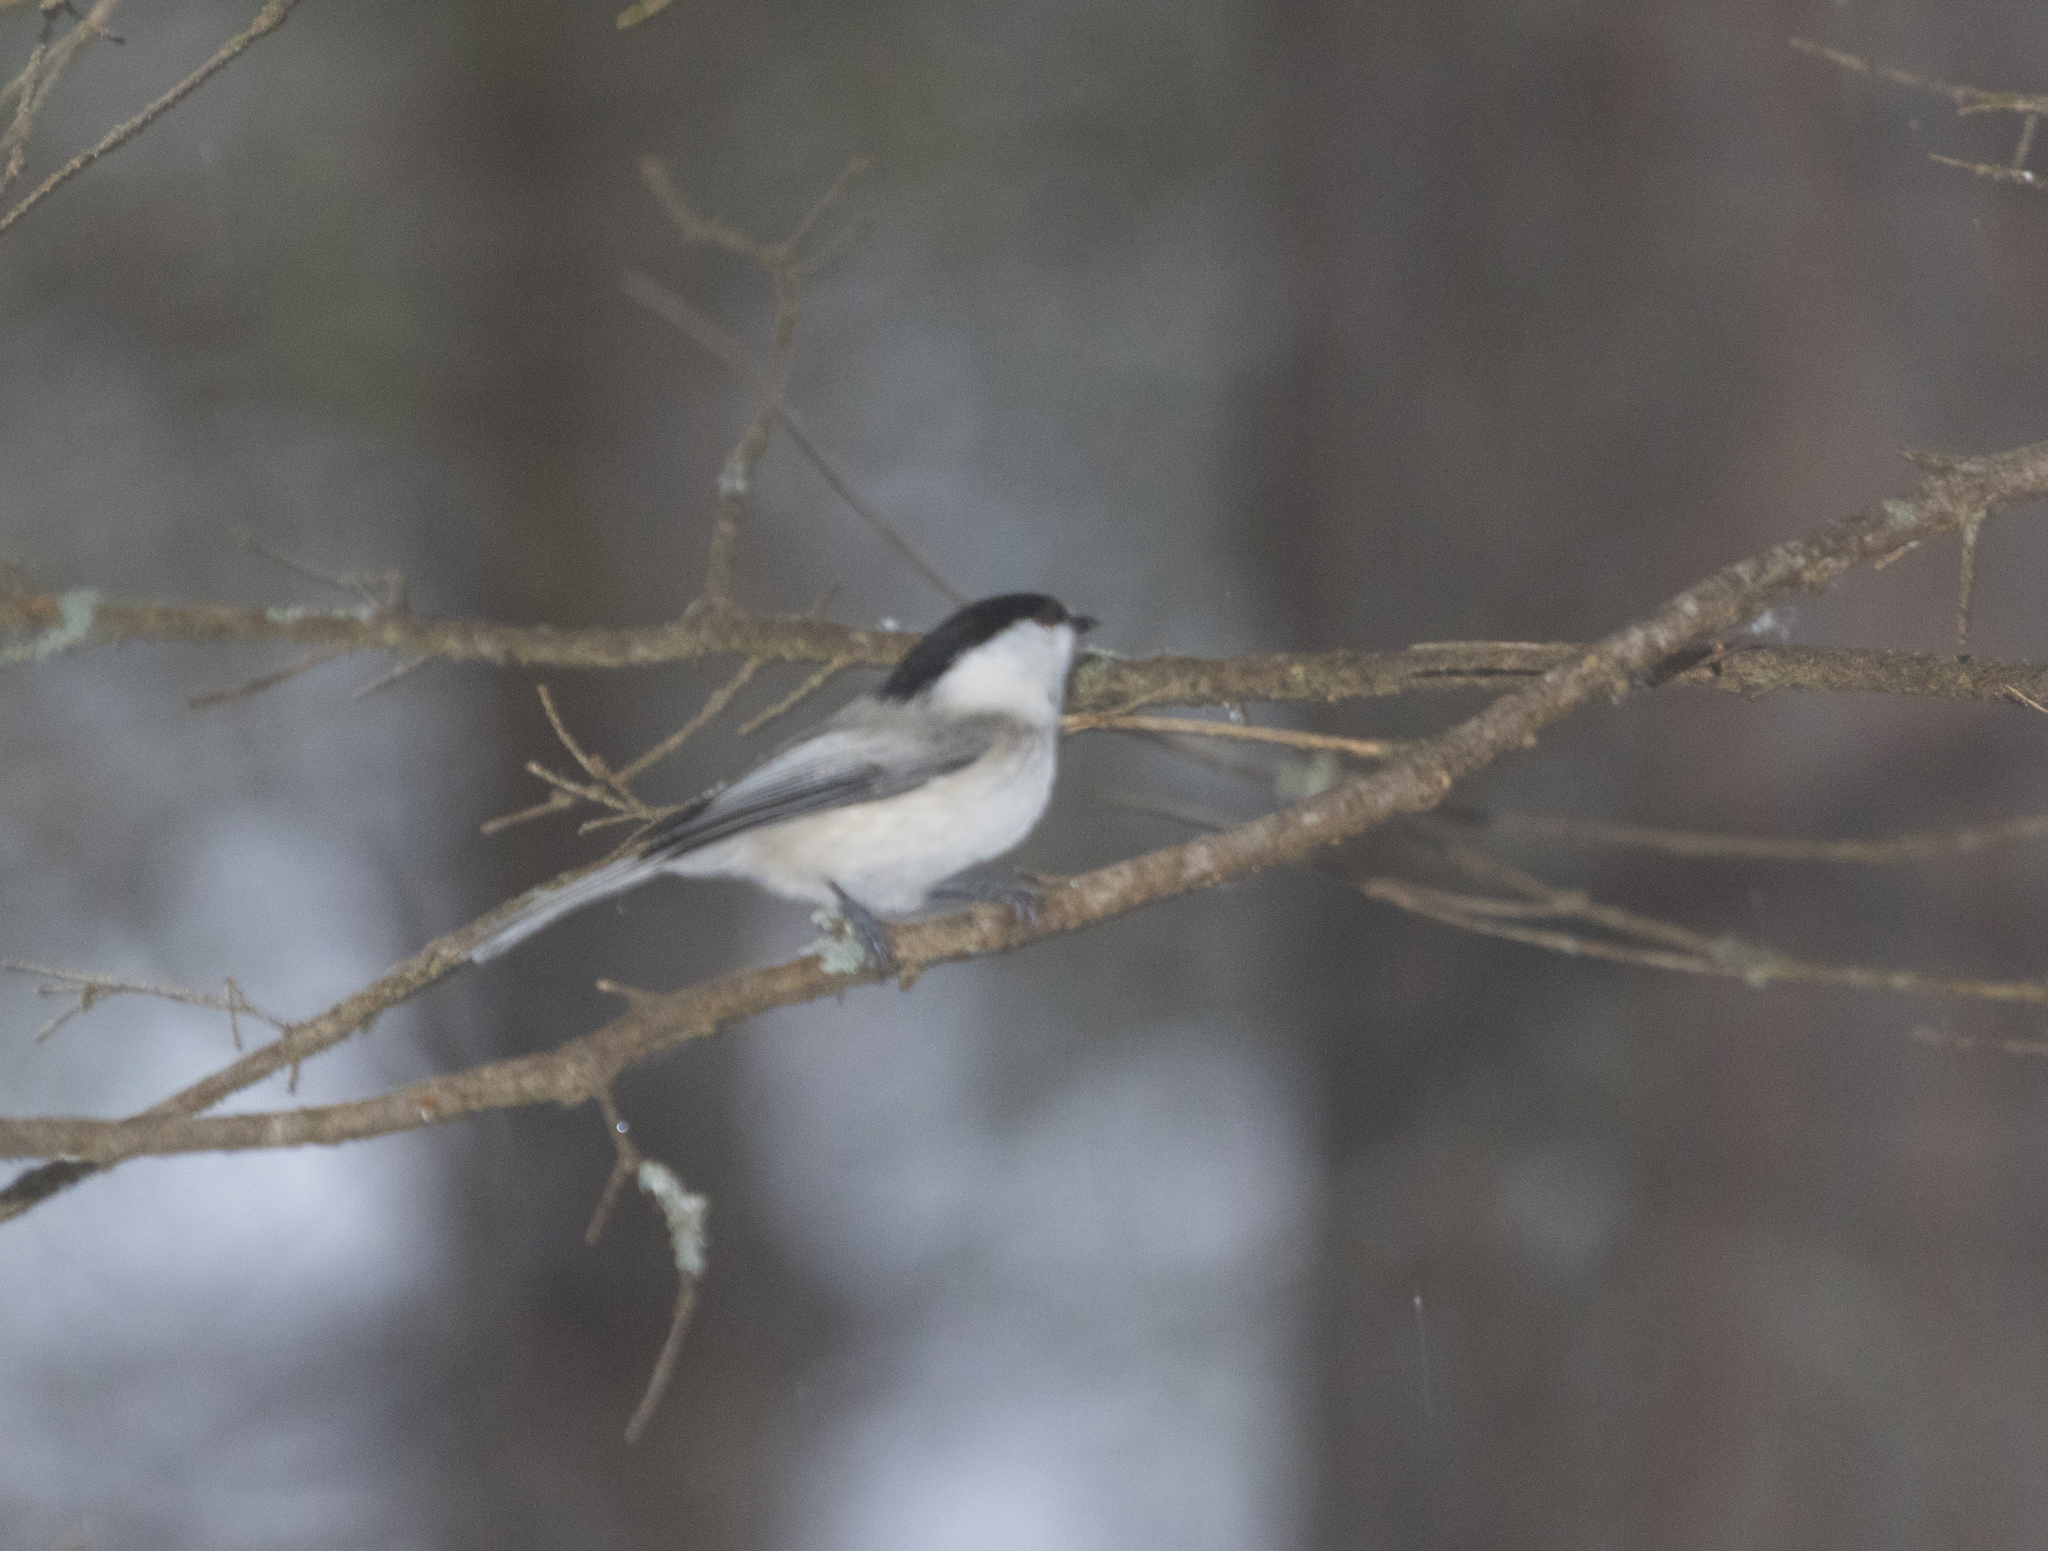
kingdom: Animalia
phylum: Chordata
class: Aves
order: Passeriformes
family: Paridae
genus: Poecile
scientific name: Poecile montanus
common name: Willow tit
